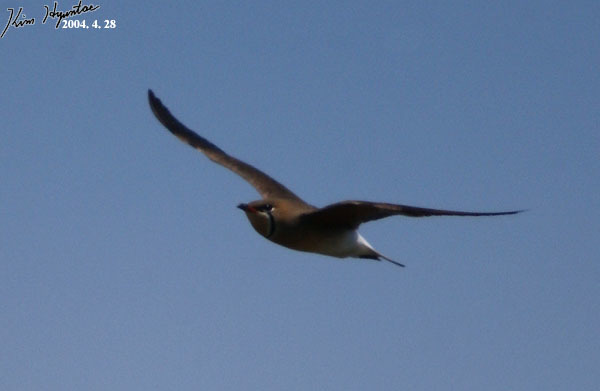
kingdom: Animalia
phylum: Chordata
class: Aves
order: Charadriiformes
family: Glareolidae
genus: Glareola
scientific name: Glareola maldivarum
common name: Oriental pratincole
